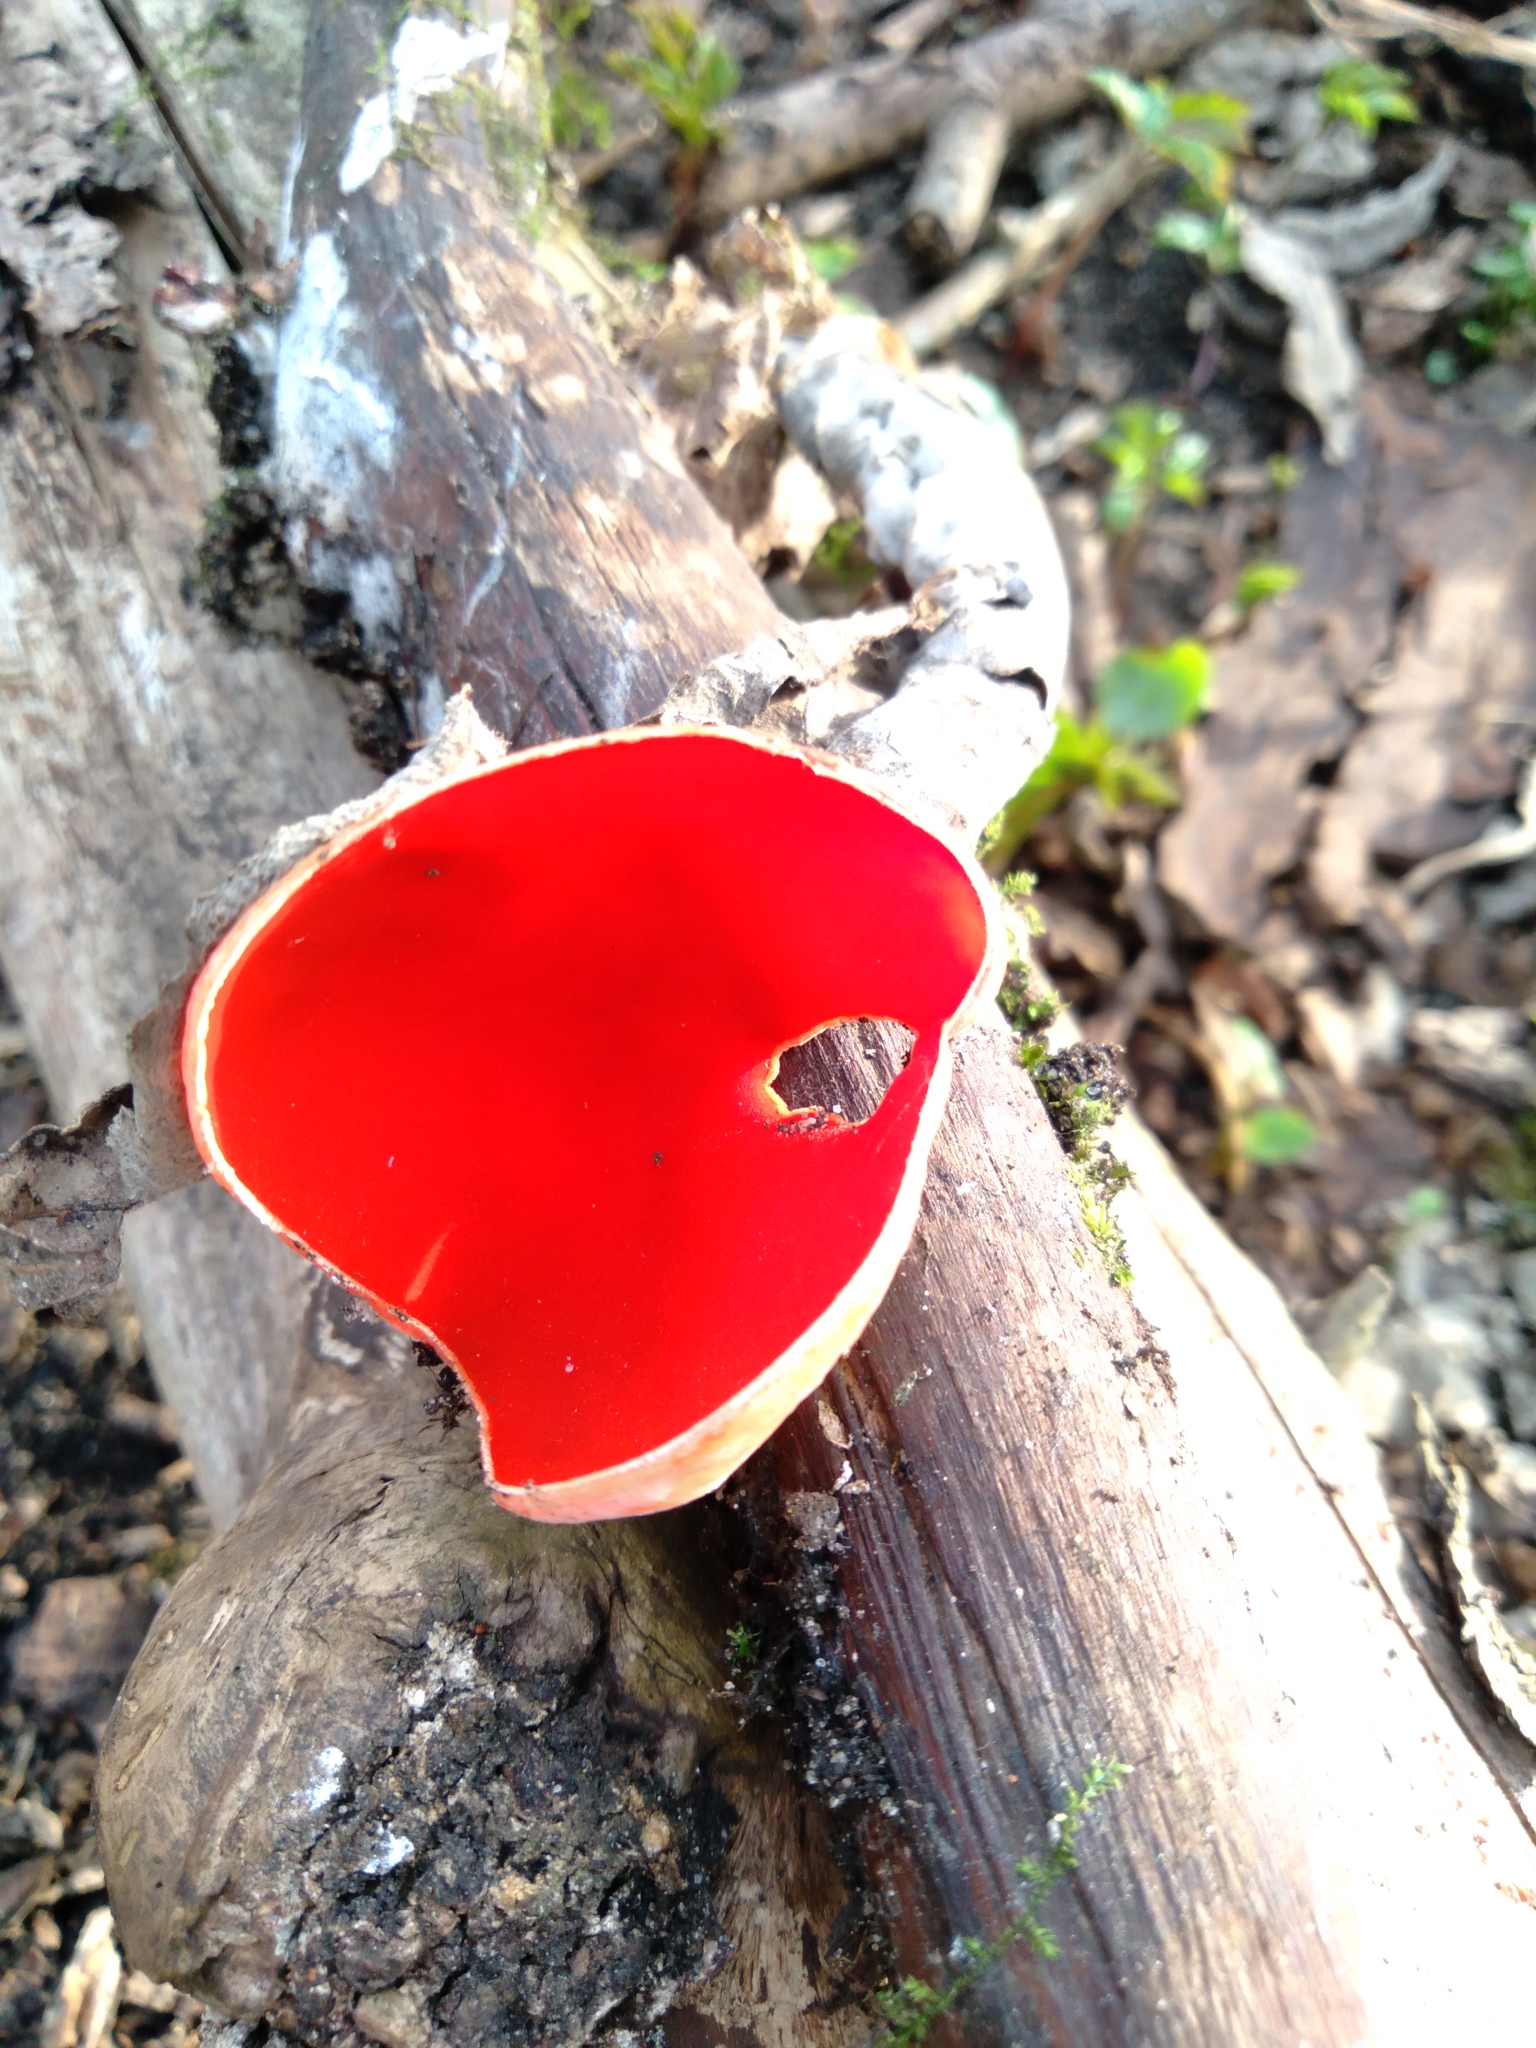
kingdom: Fungi
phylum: Ascomycota
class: Pezizomycetes
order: Pezizales
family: Sarcoscyphaceae
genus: Sarcoscypha
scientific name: Sarcoscypha austriaca
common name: Scarlet elfcup
